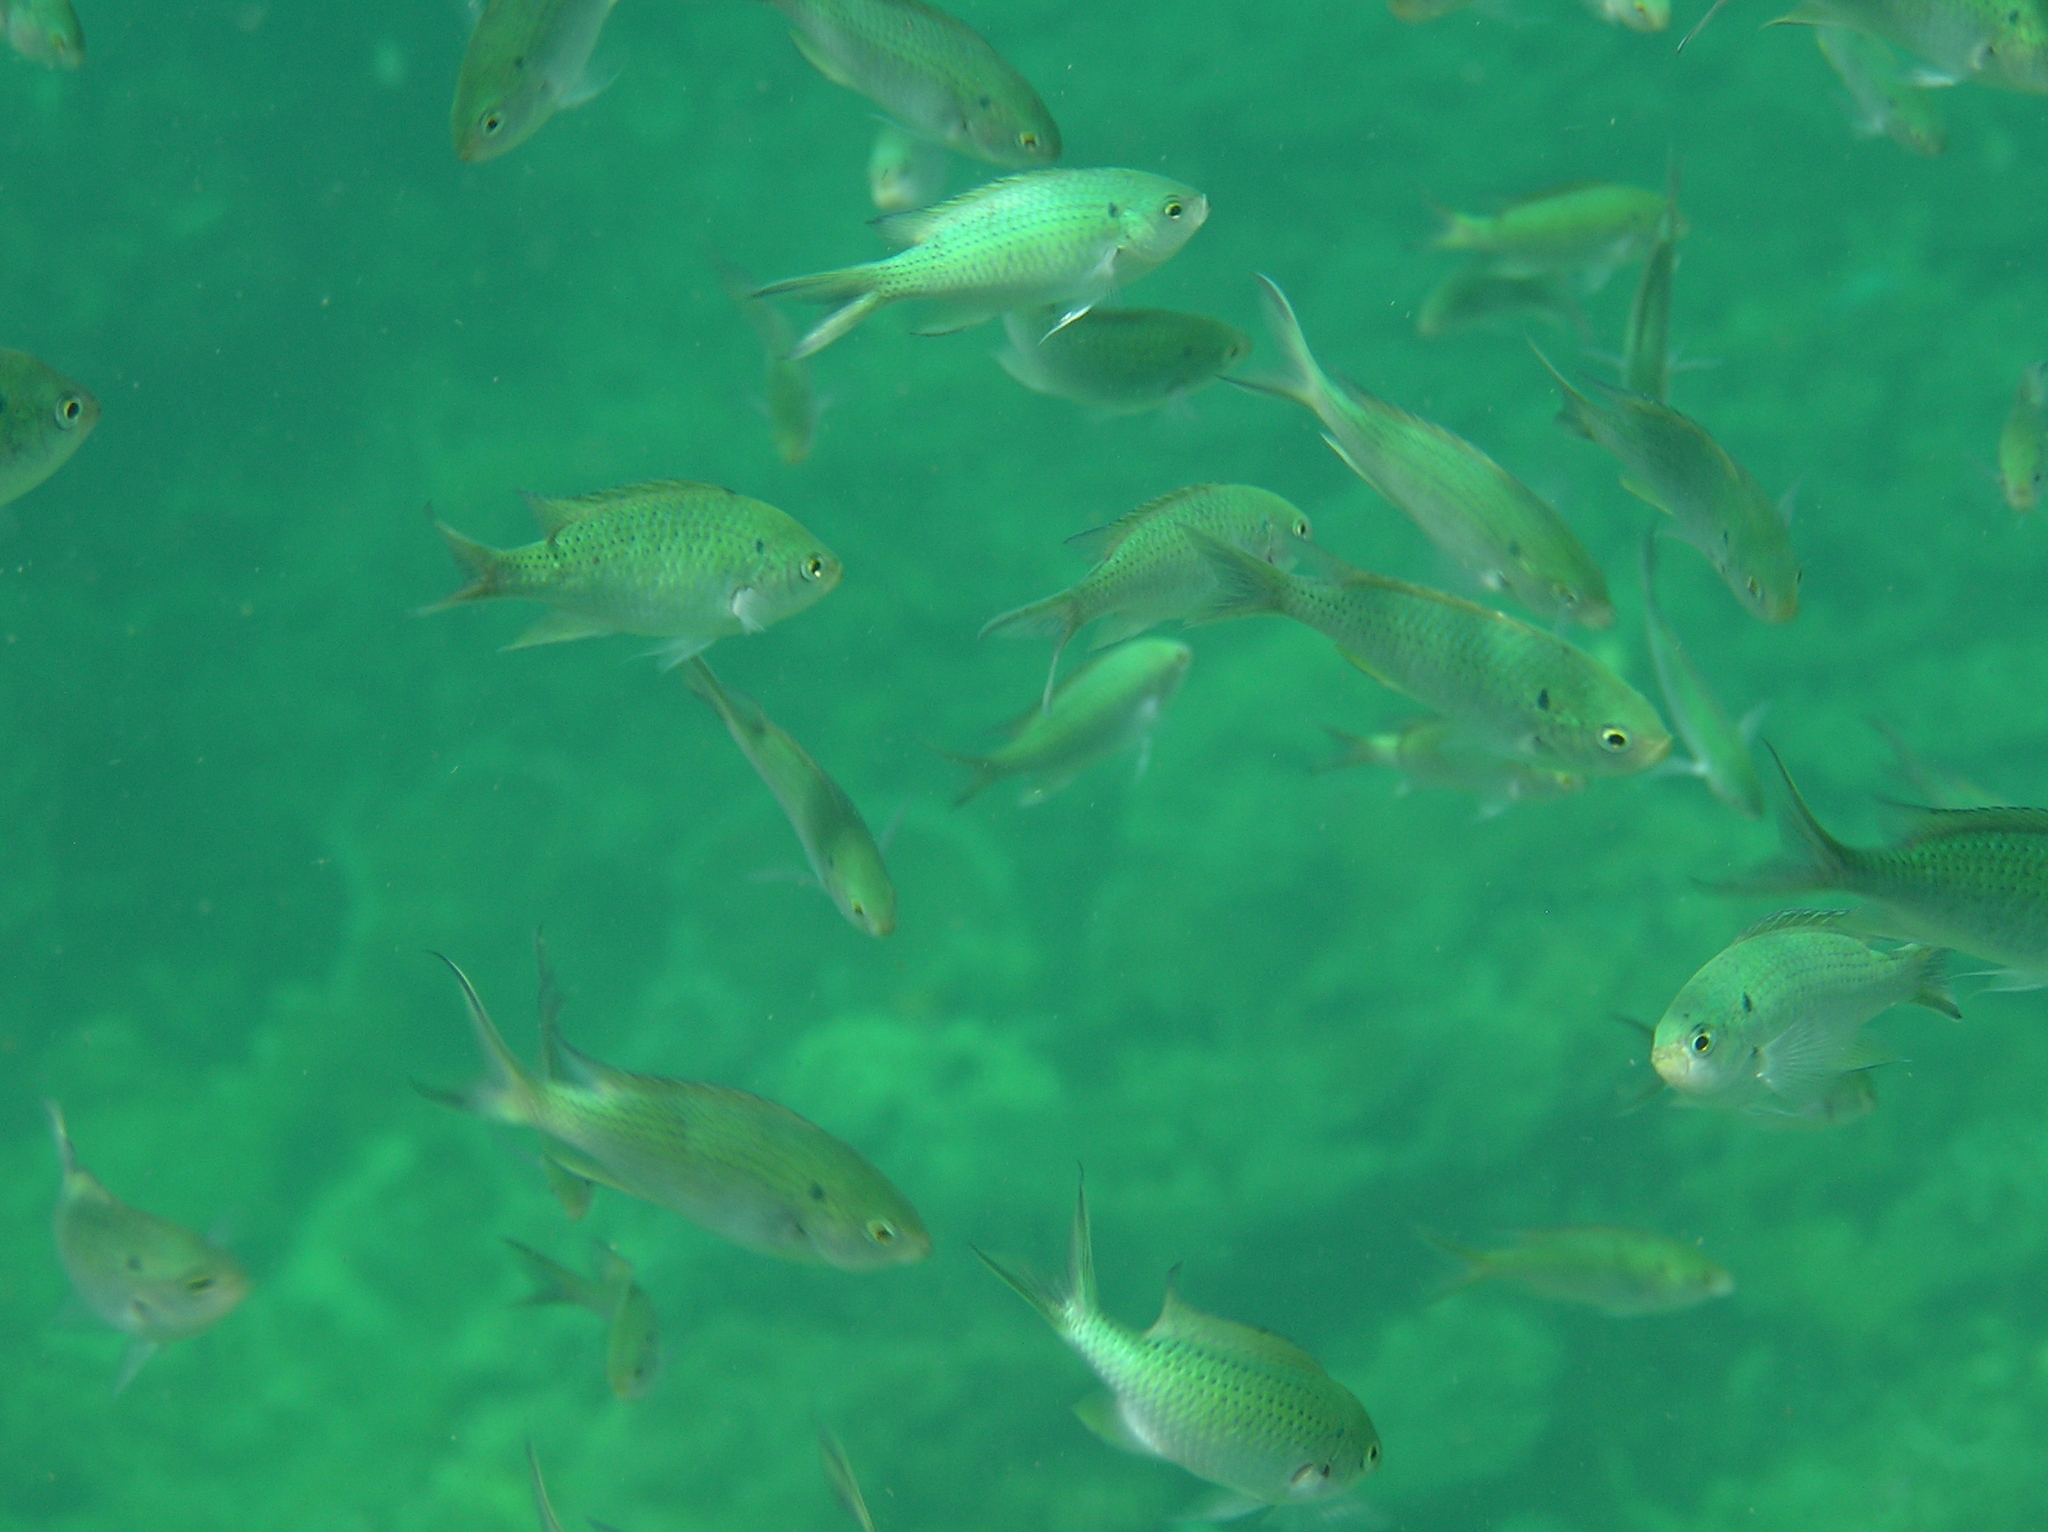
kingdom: Animalia
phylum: Chordata
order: Perciformes
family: Pomacentridae
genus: Neopomacentrus
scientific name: Neopomacentrus anabatoides
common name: Silver demoiselle
